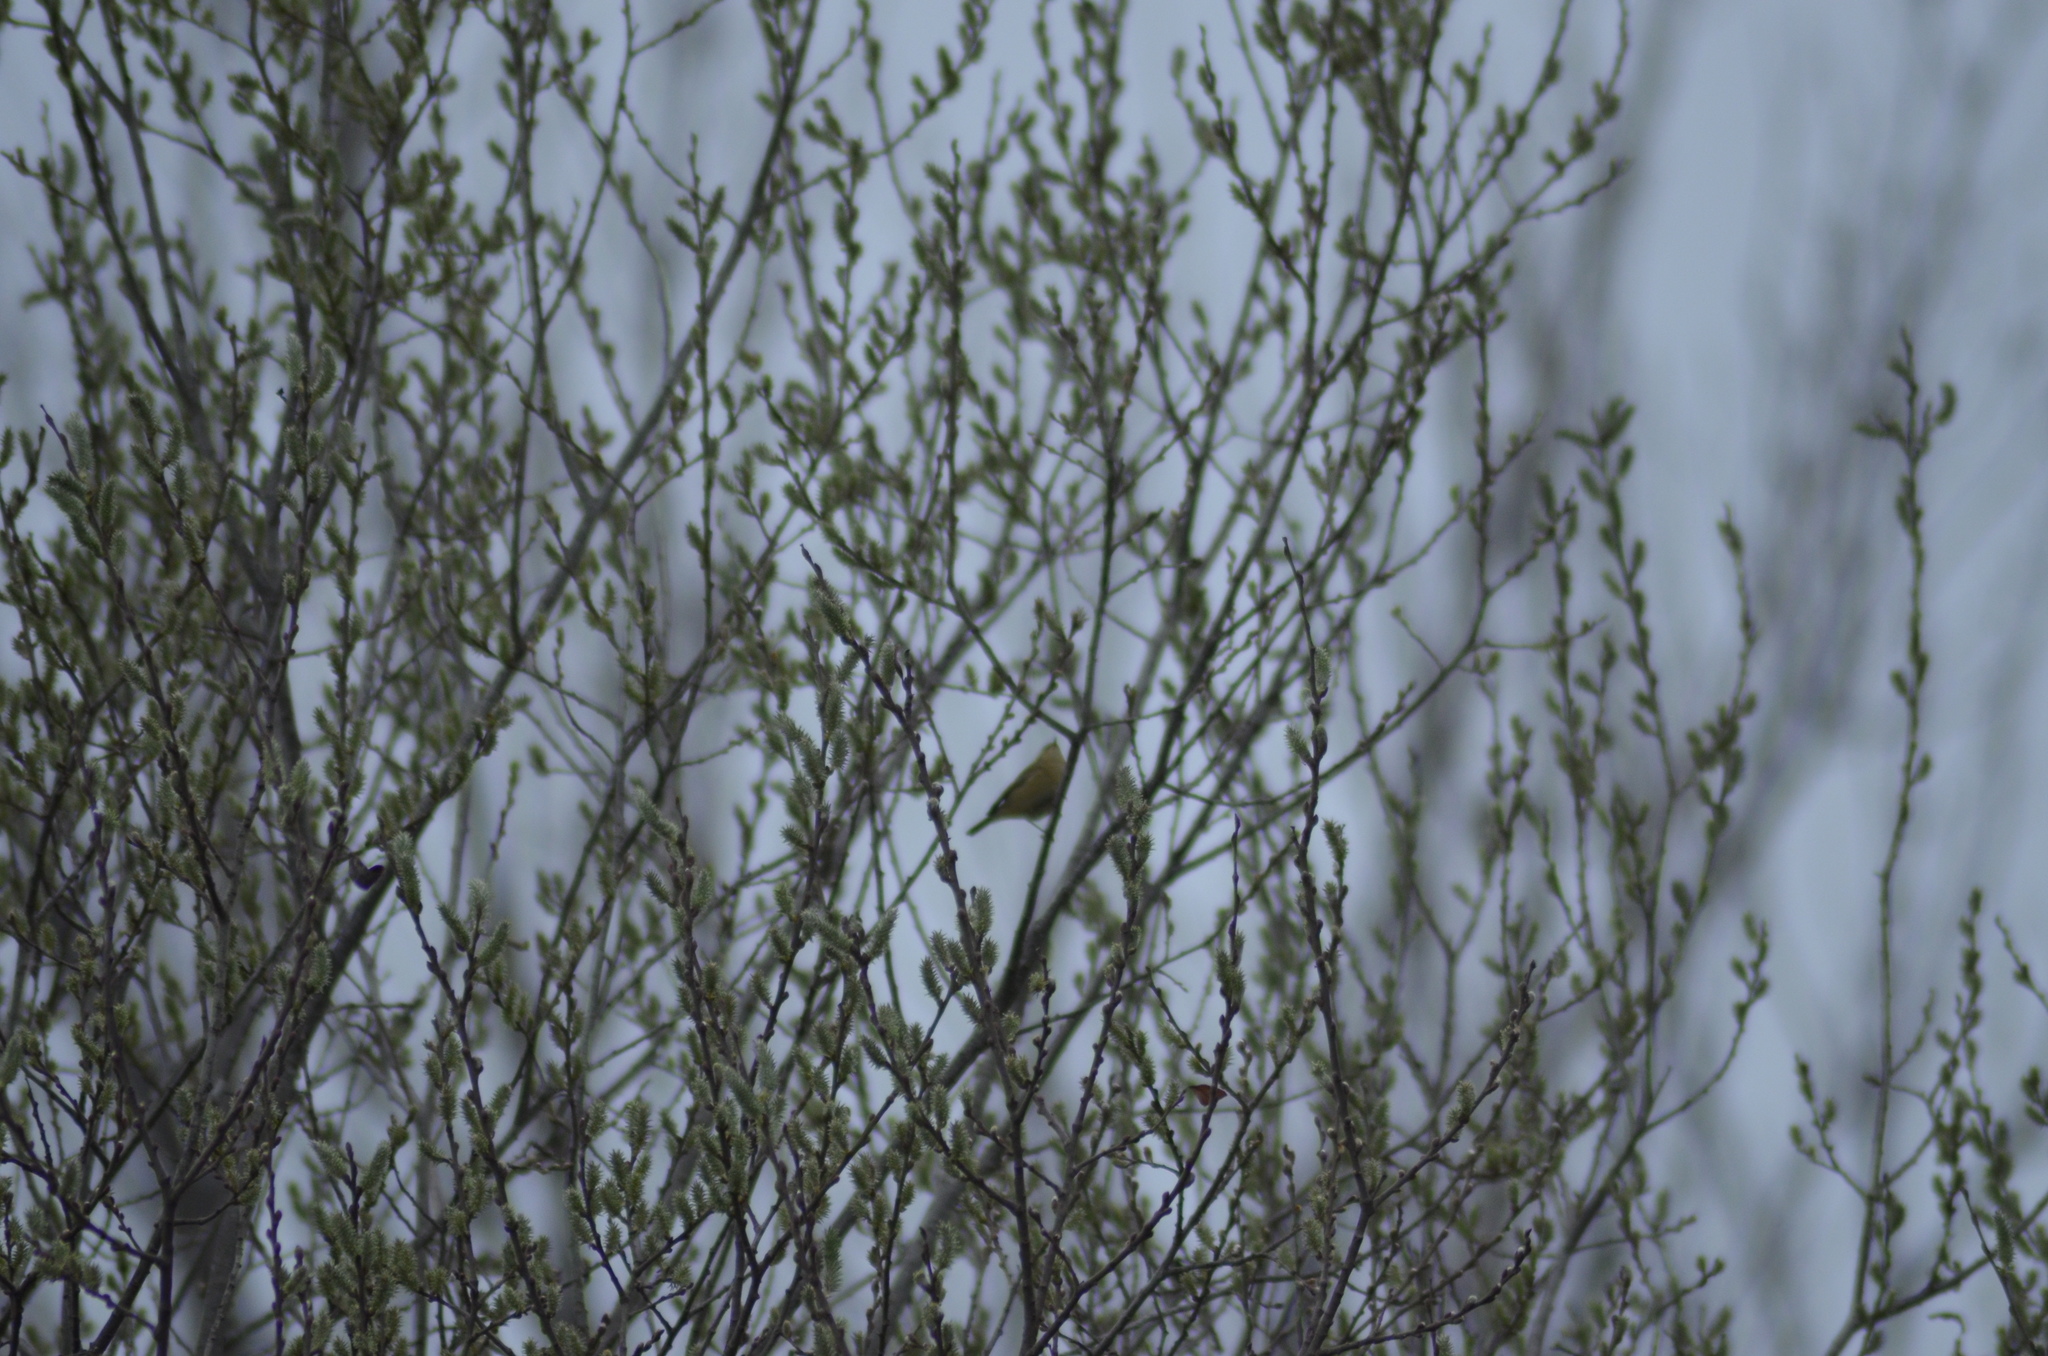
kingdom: Animalia
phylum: Chordata
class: Aves
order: Passeriformes
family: Phylloscopidae
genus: Phylloscopus
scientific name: Phylloscopus collybita
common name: Common chiffchaff
